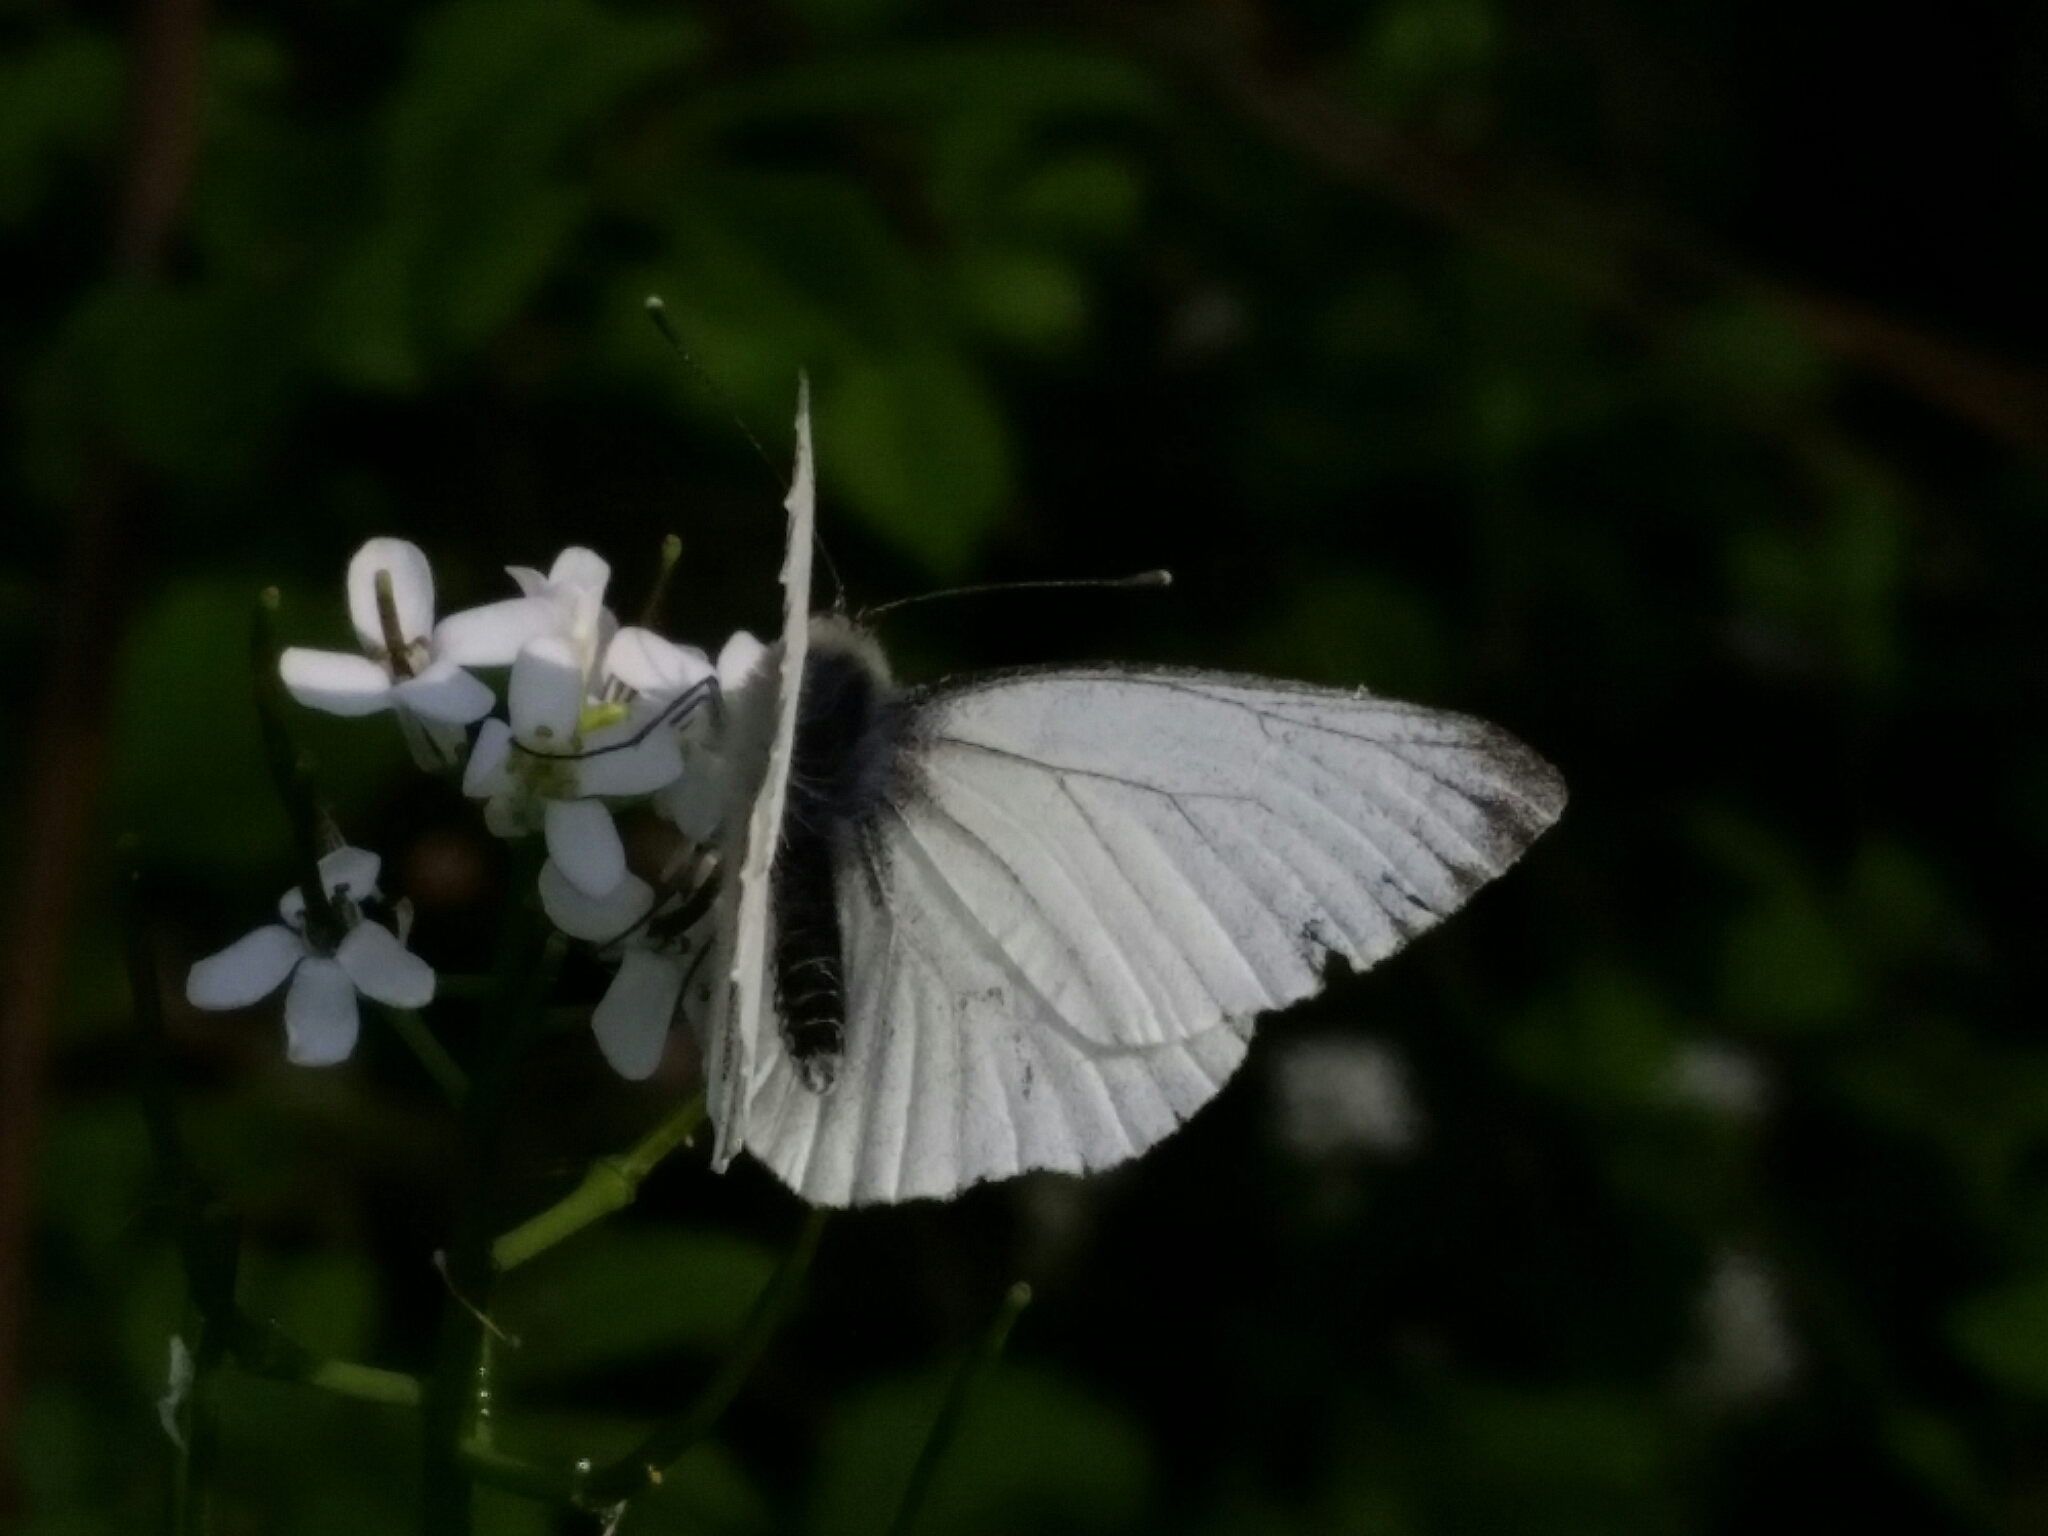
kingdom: Animalia
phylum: Arthropoda
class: Insecta
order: Lepidoptera
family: Pieridae
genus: Pieris
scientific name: Pieris napi
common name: Green-veined white
